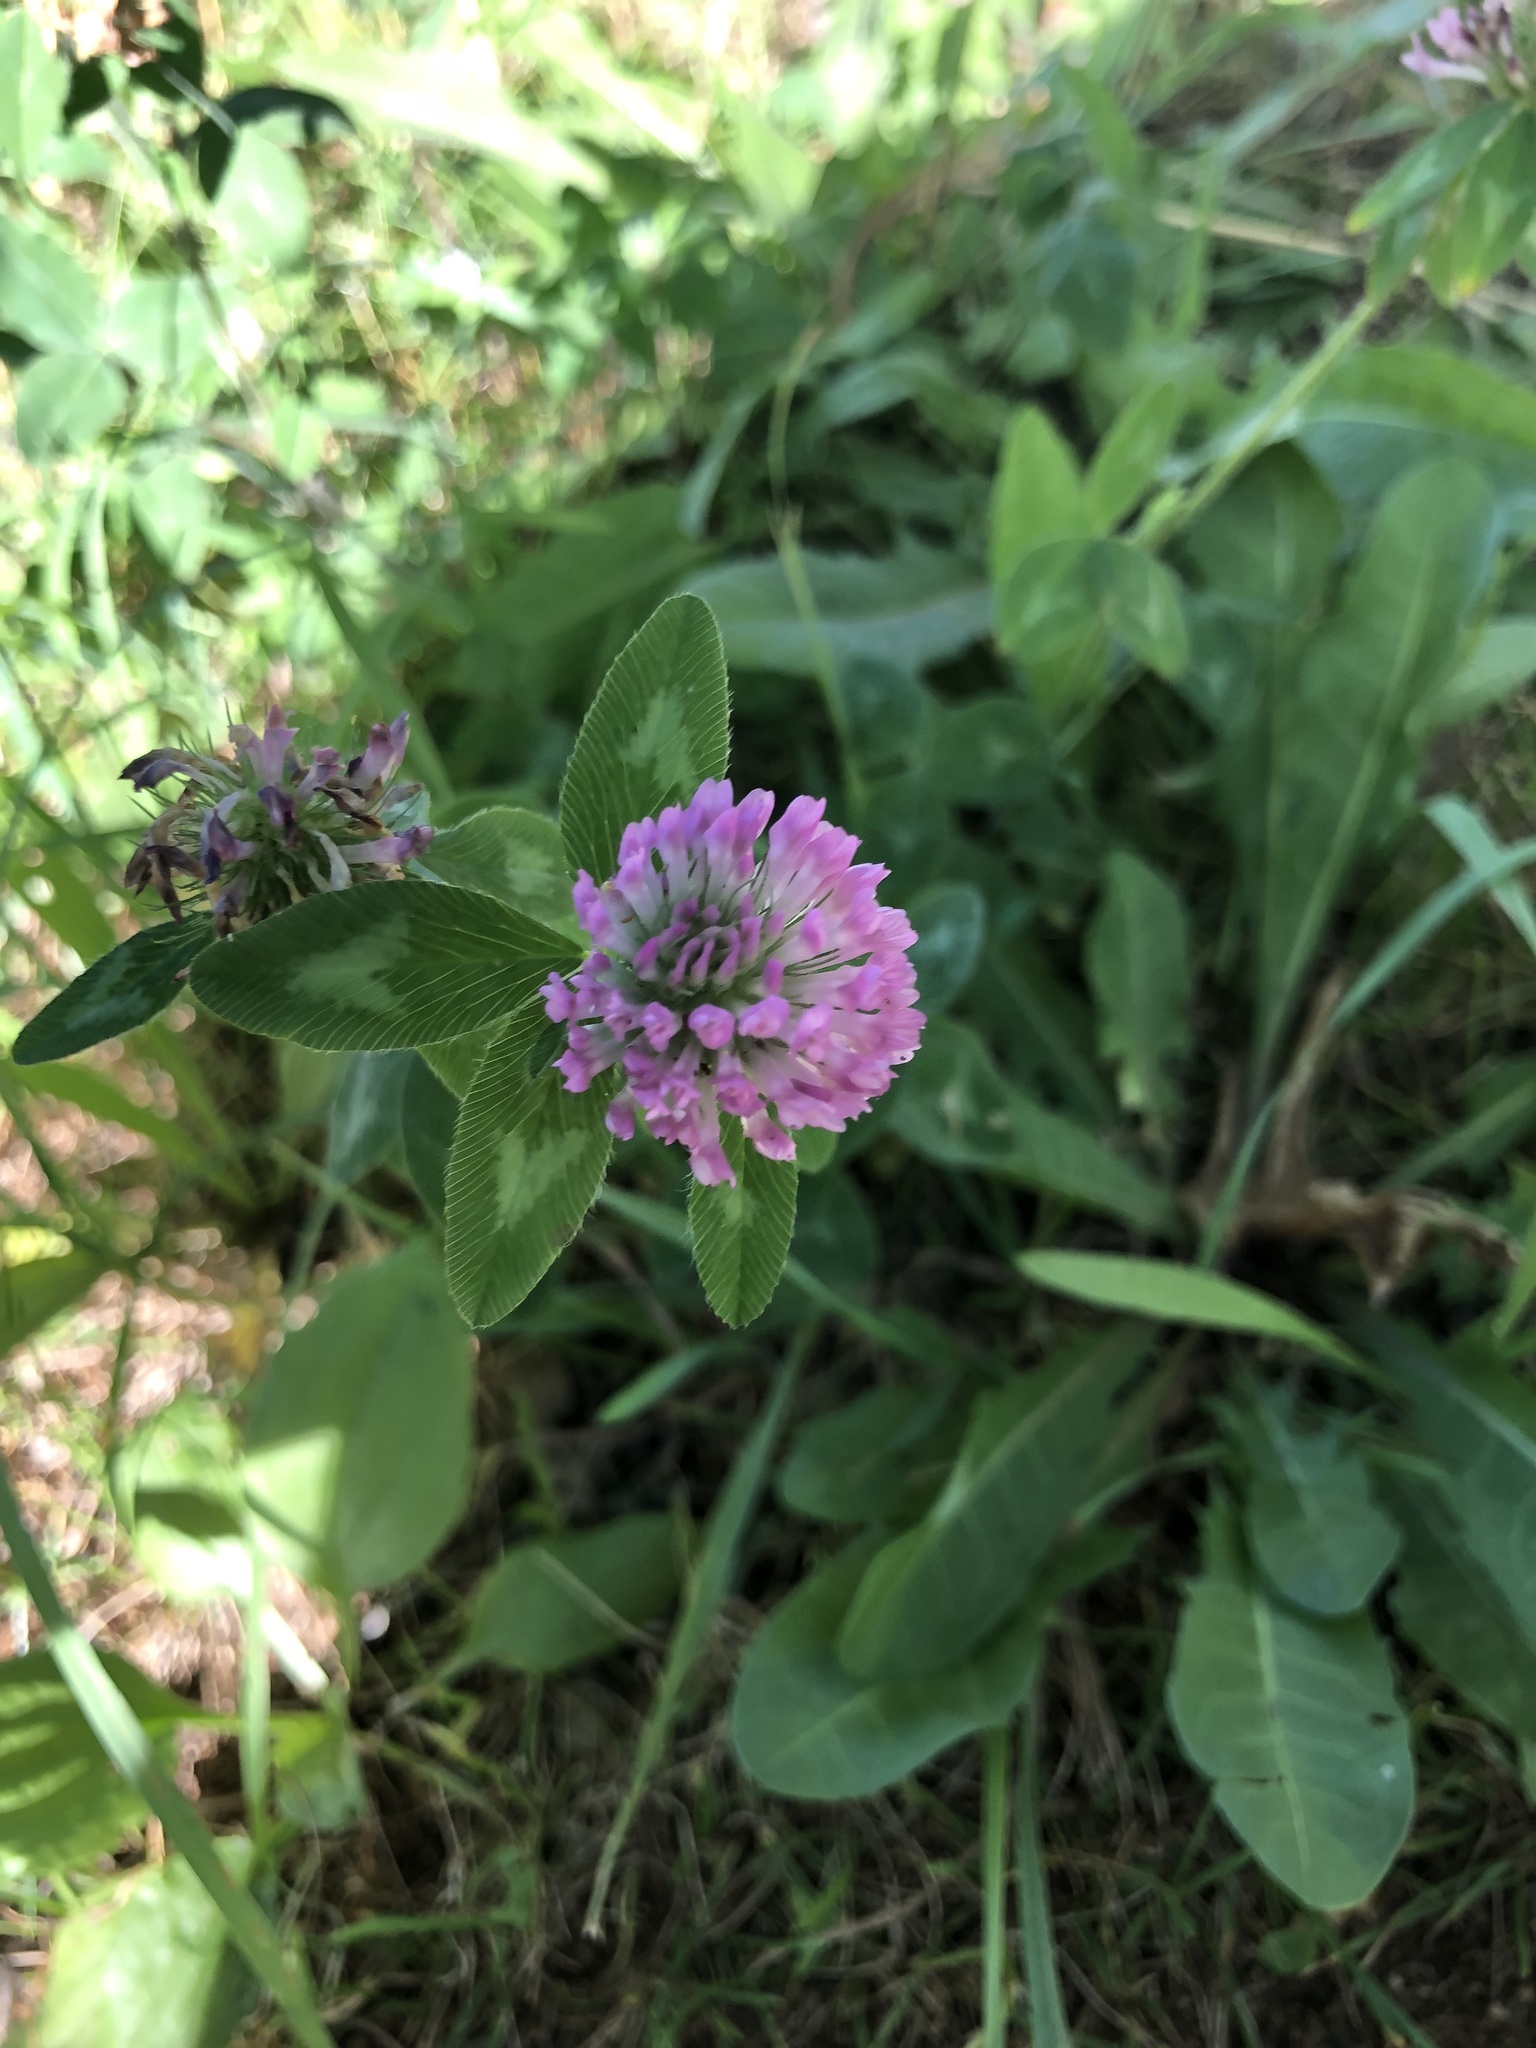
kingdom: Plantae
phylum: Tracheophyta
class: Magnoliopsida
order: Fabales
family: Fabaceae
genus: Trifolium
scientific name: Trifolium pratense
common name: Red clover
